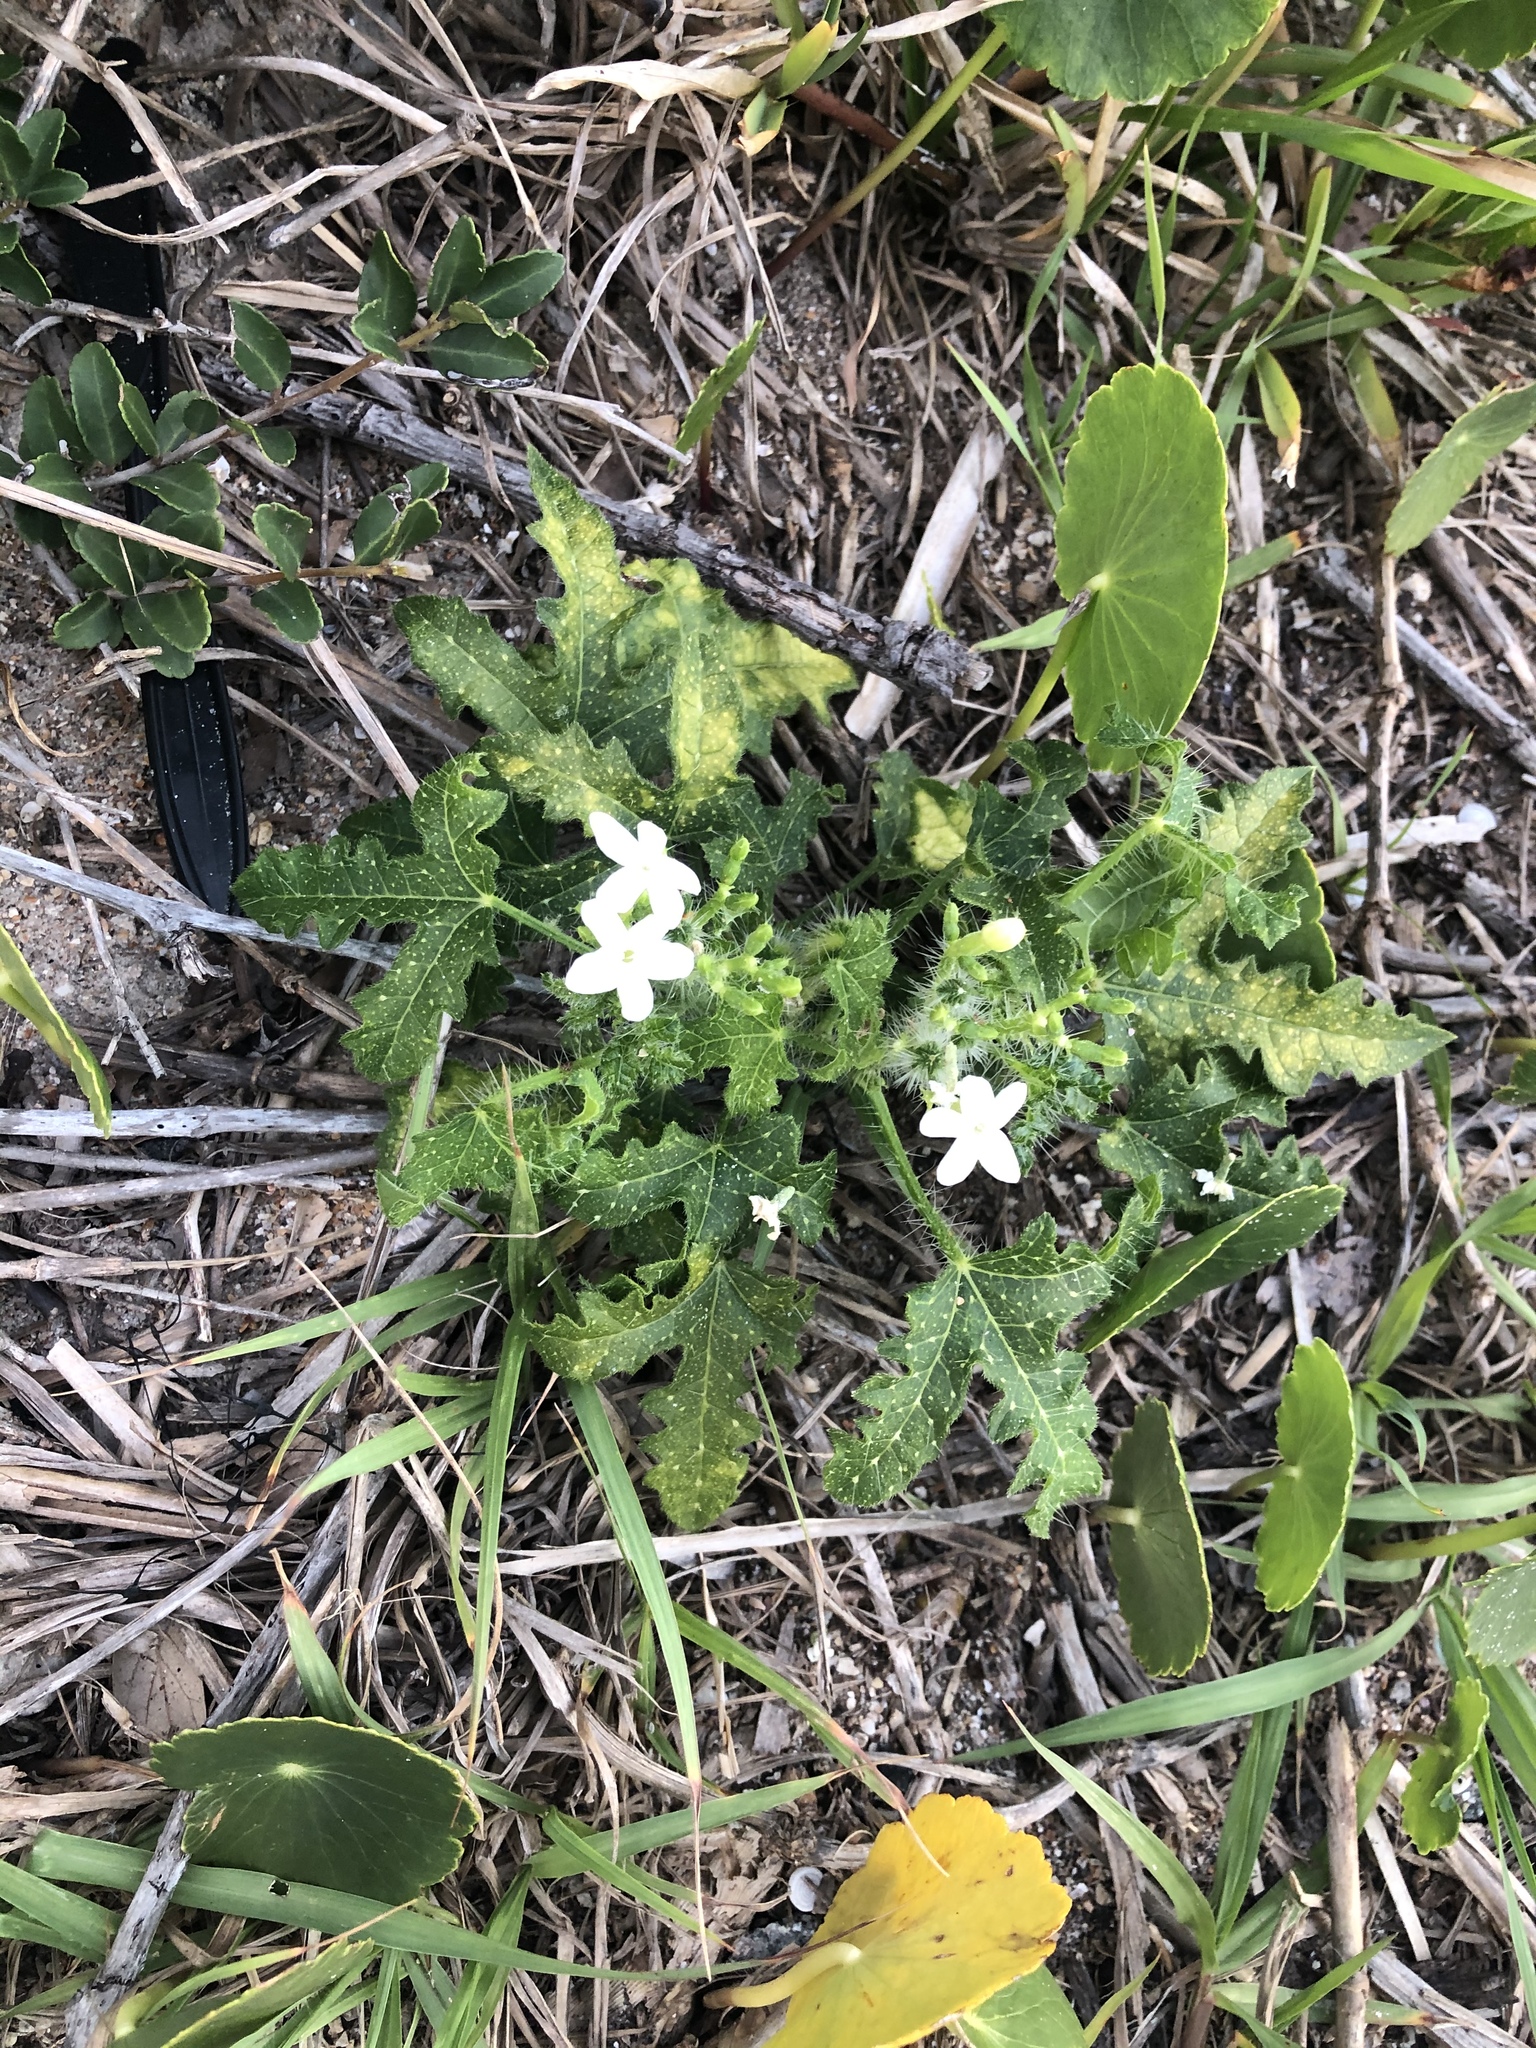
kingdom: Plantae
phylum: Tracheophyta
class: Magnoliopsida
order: Malpighiales
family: Euphorbiaceae
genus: Cnidoscolus
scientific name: Cnidoscolus stimulosus
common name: Bull-nettle
